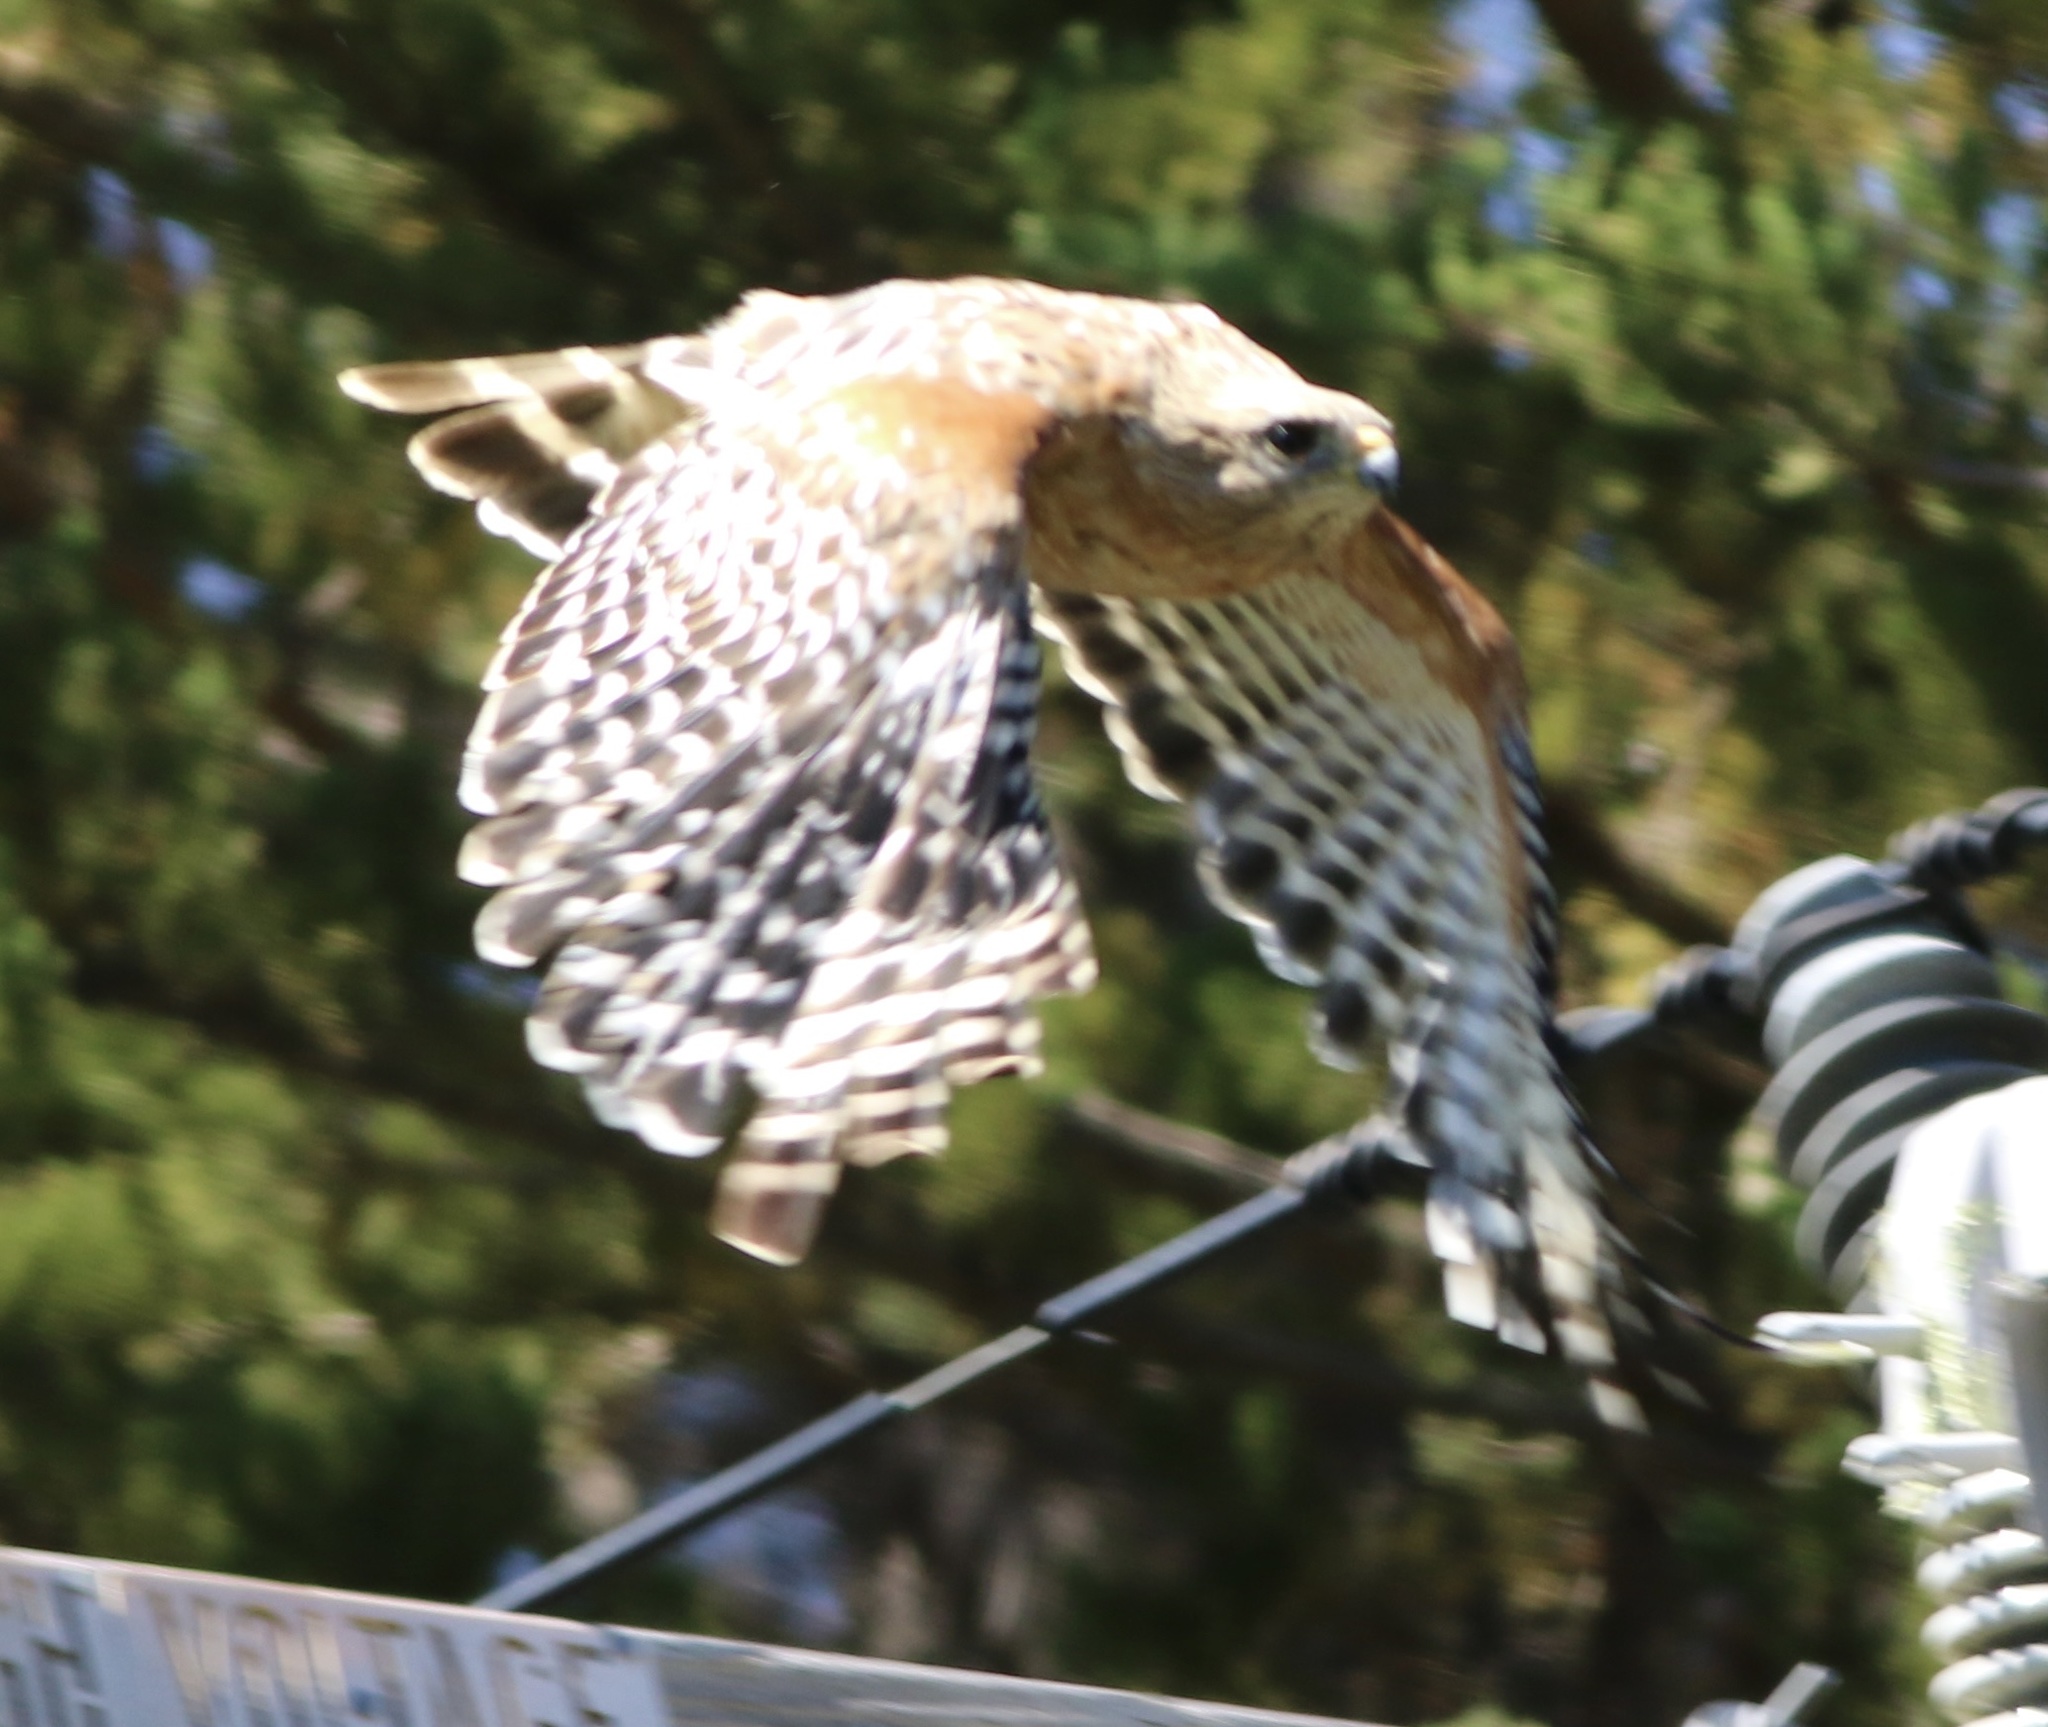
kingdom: Animalia
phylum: Chordata
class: Aves
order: Accipitriformes
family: Accipitridae
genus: Buteo
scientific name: Buteo lineatus
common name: Red-shouldered hawk
